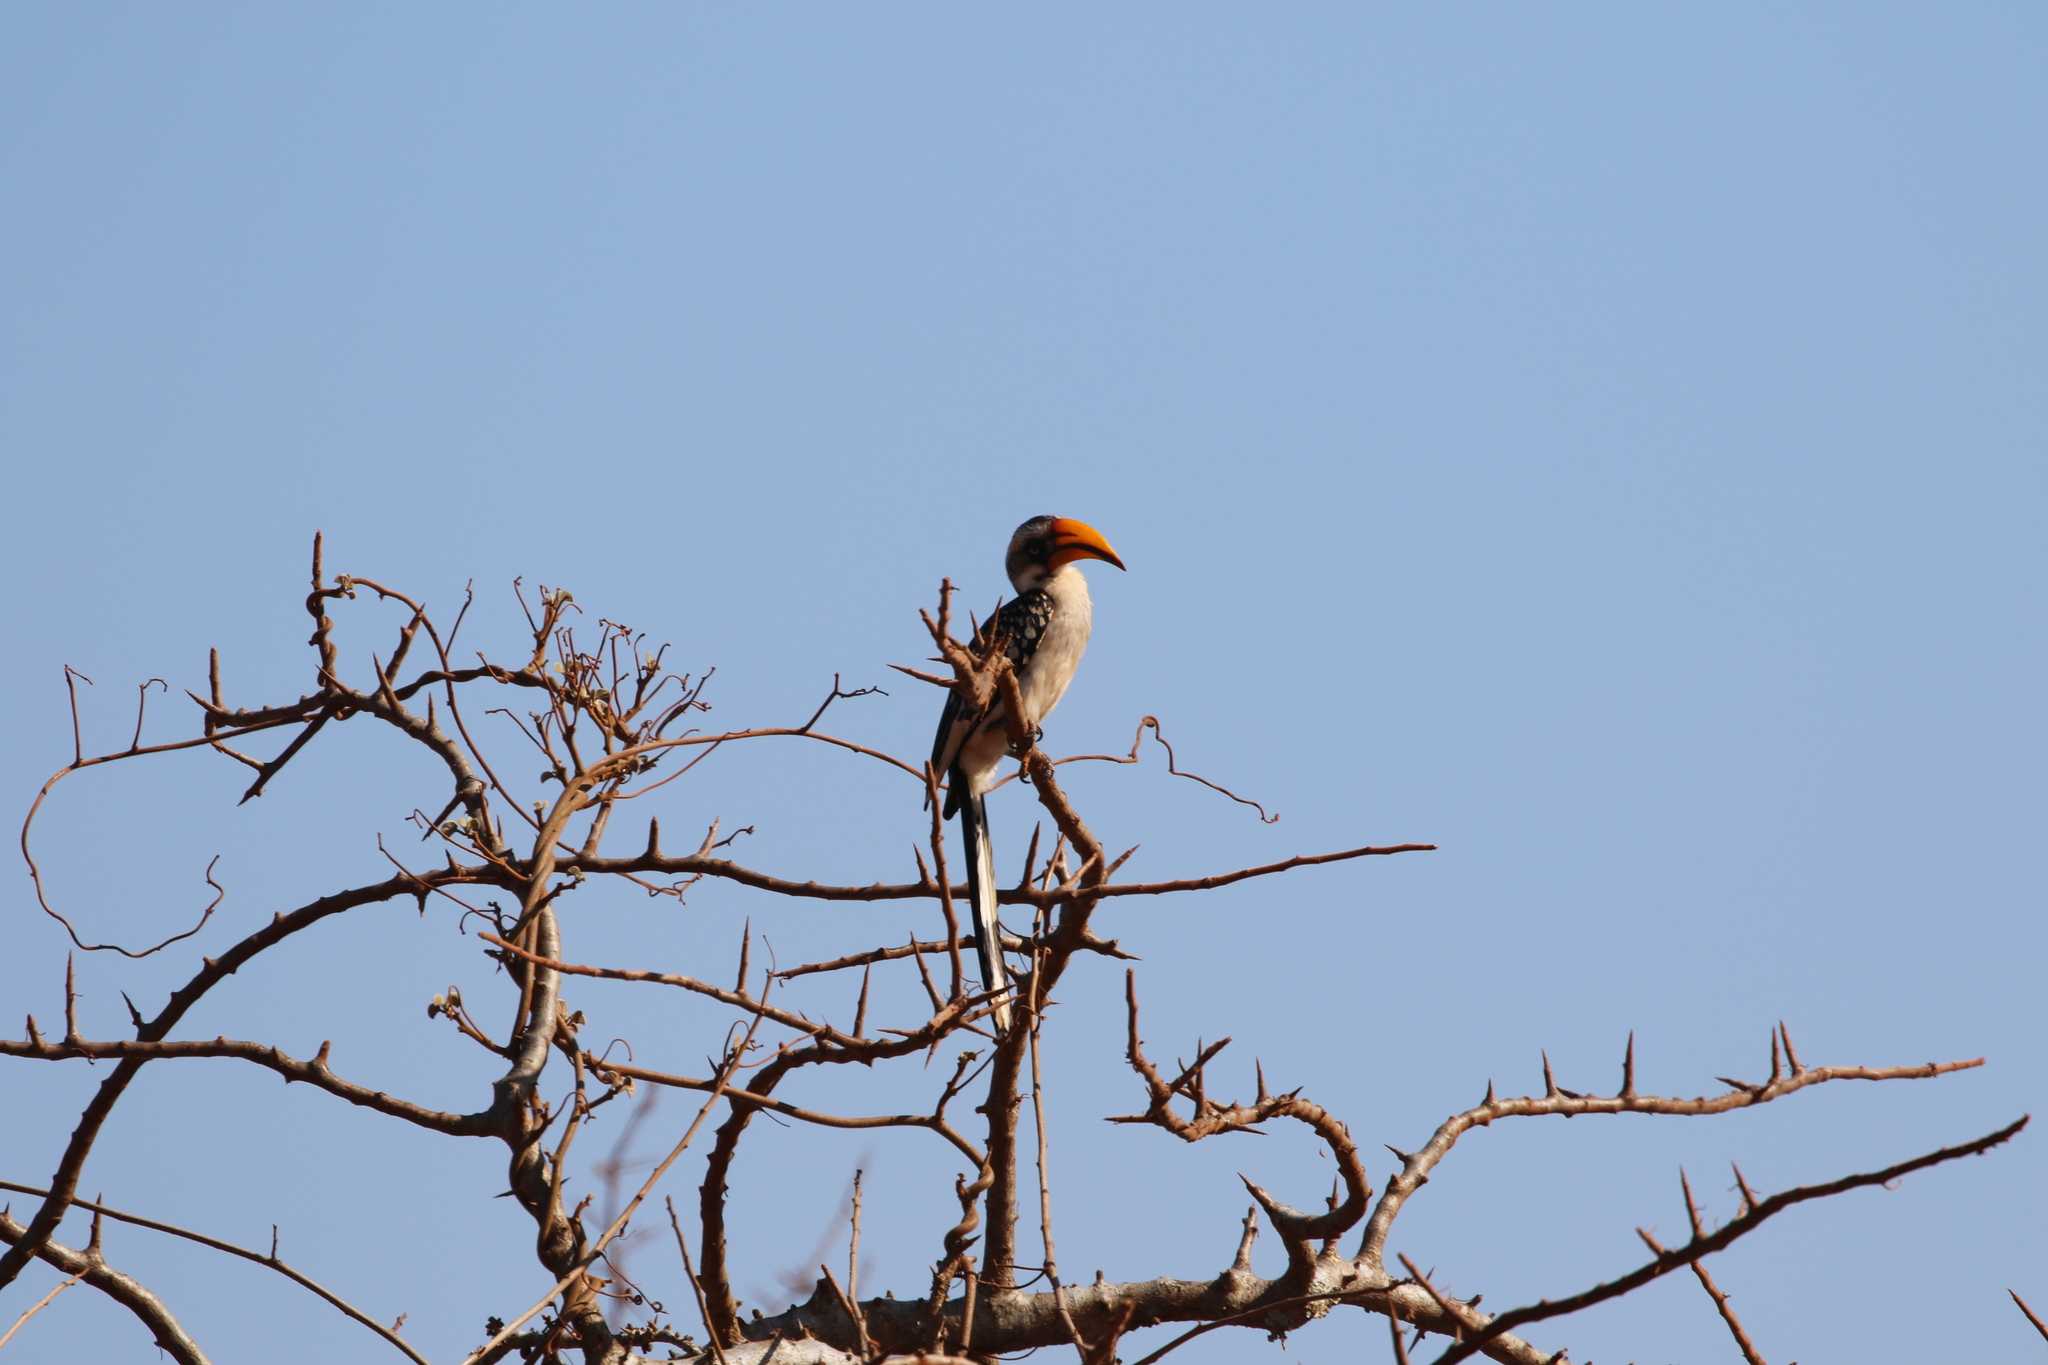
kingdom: Animalia
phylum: Chordata
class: Aves
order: Bucerotiformes
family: Bucerotidae
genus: Tockus
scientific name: Tockus flavirostris
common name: Eastern yellow-billed hornbill
